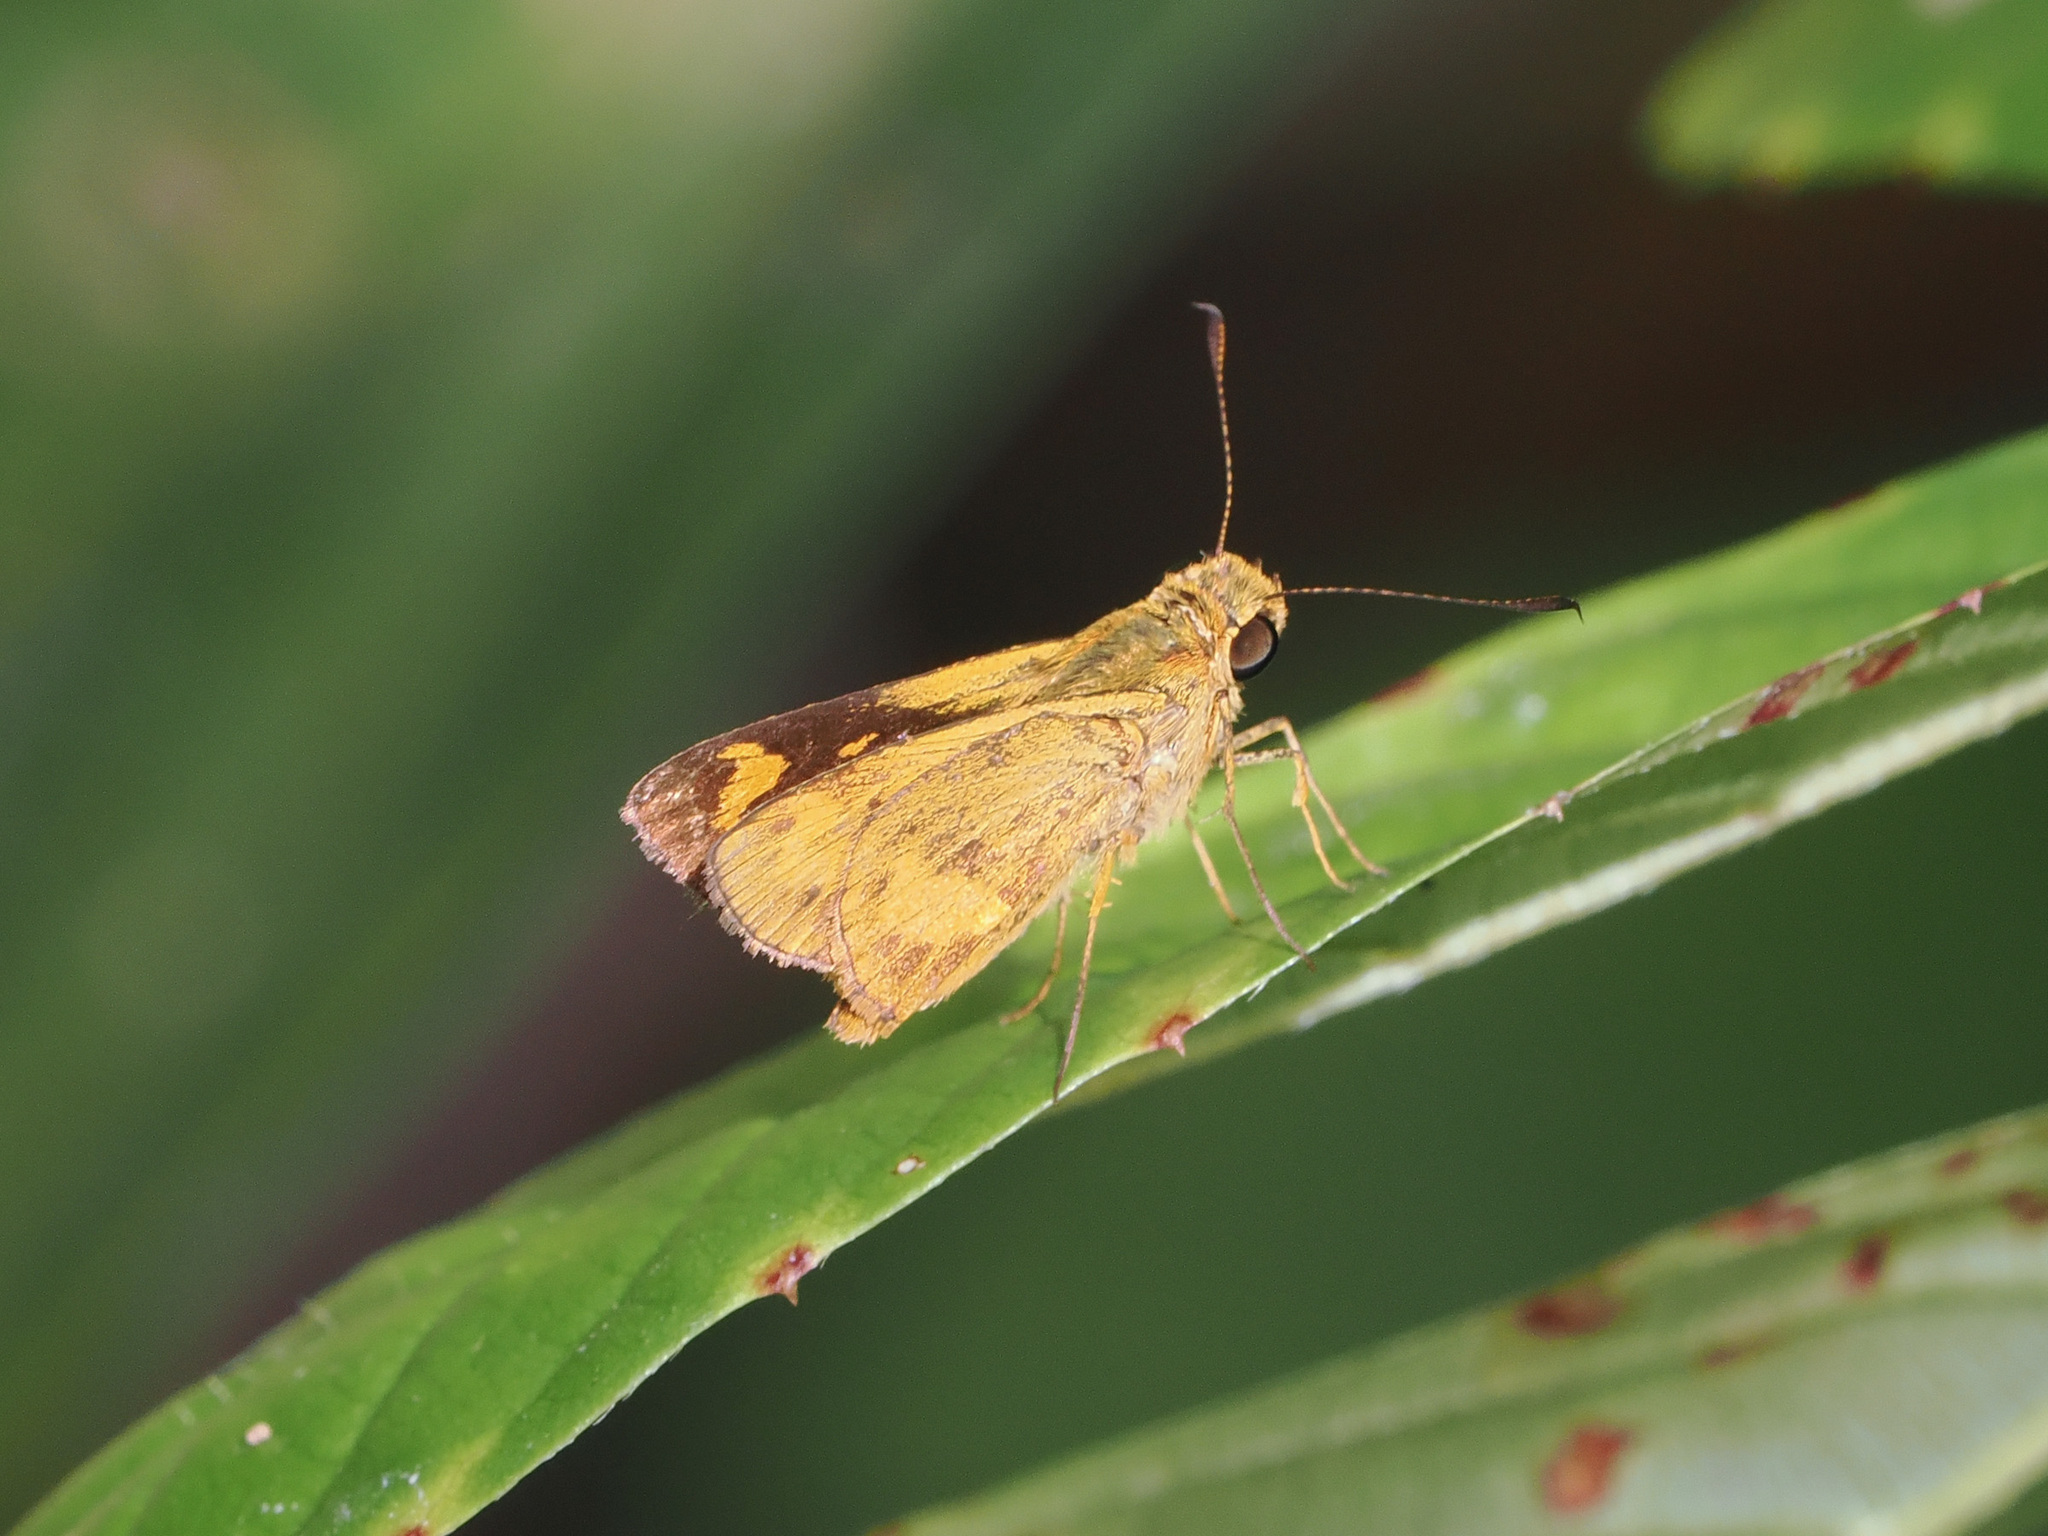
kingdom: Animalia
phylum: Arthropoda
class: Insecta
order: Lepidoptera
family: Hesperiidae
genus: Oriens
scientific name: Oriens gola
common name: Common dartlet
